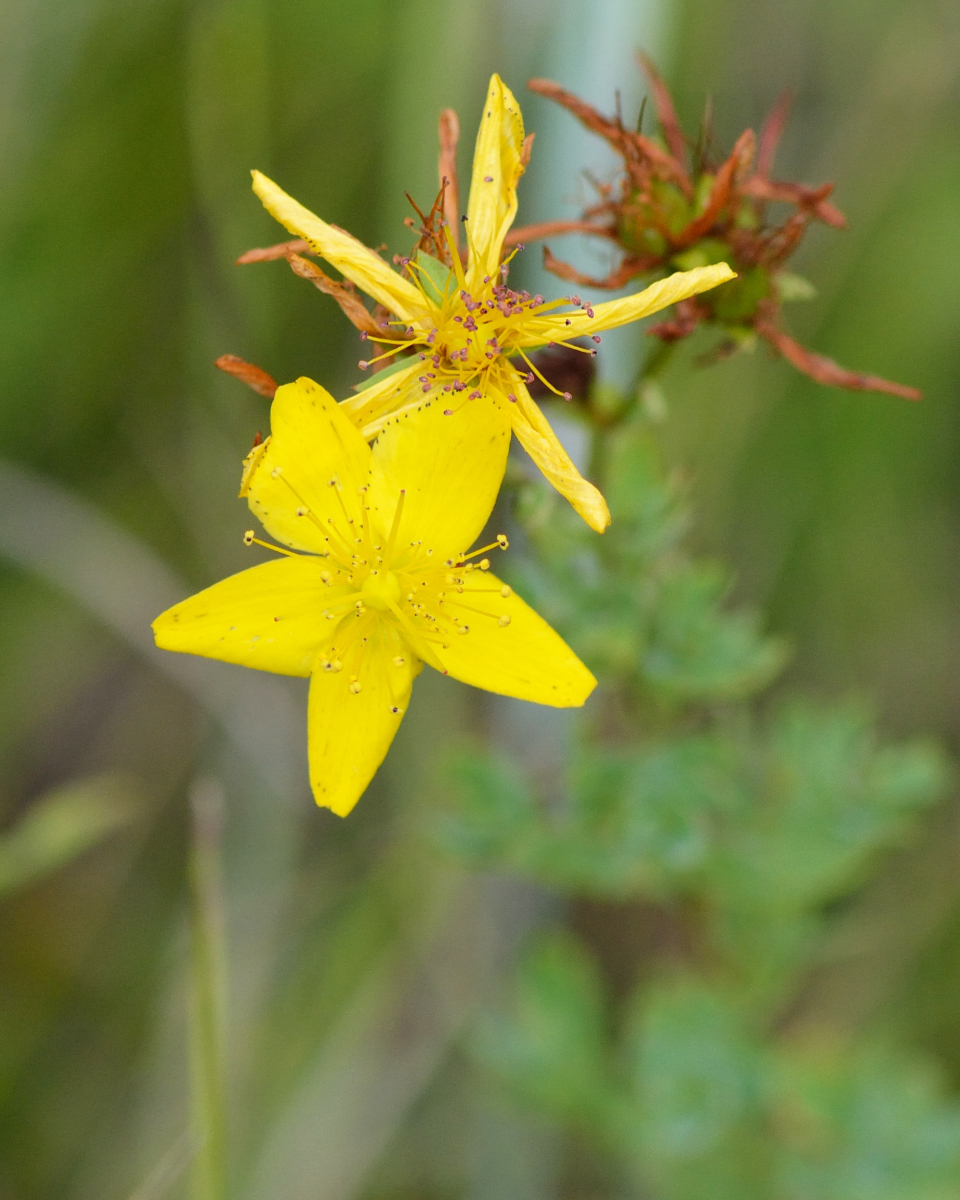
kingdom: Plantae
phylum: Tracheophyta
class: Magnoliopsida
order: Malpighiales
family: Hypericaceae
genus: Hypericum
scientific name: Hypericum perforatum
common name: Common st. johnswort
